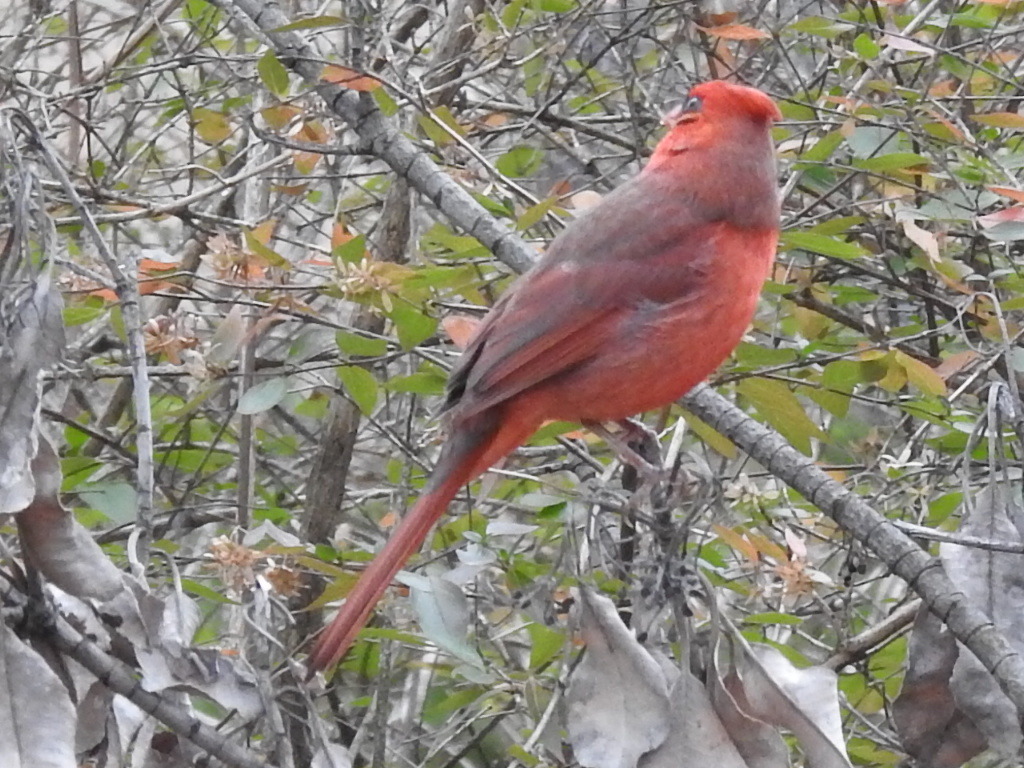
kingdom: Animalia
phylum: Chordata
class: Aves
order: Passeriformes
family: Cardinalidae
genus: Cardinalis
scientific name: Cardinalis cardinalis
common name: Northern cardinal
